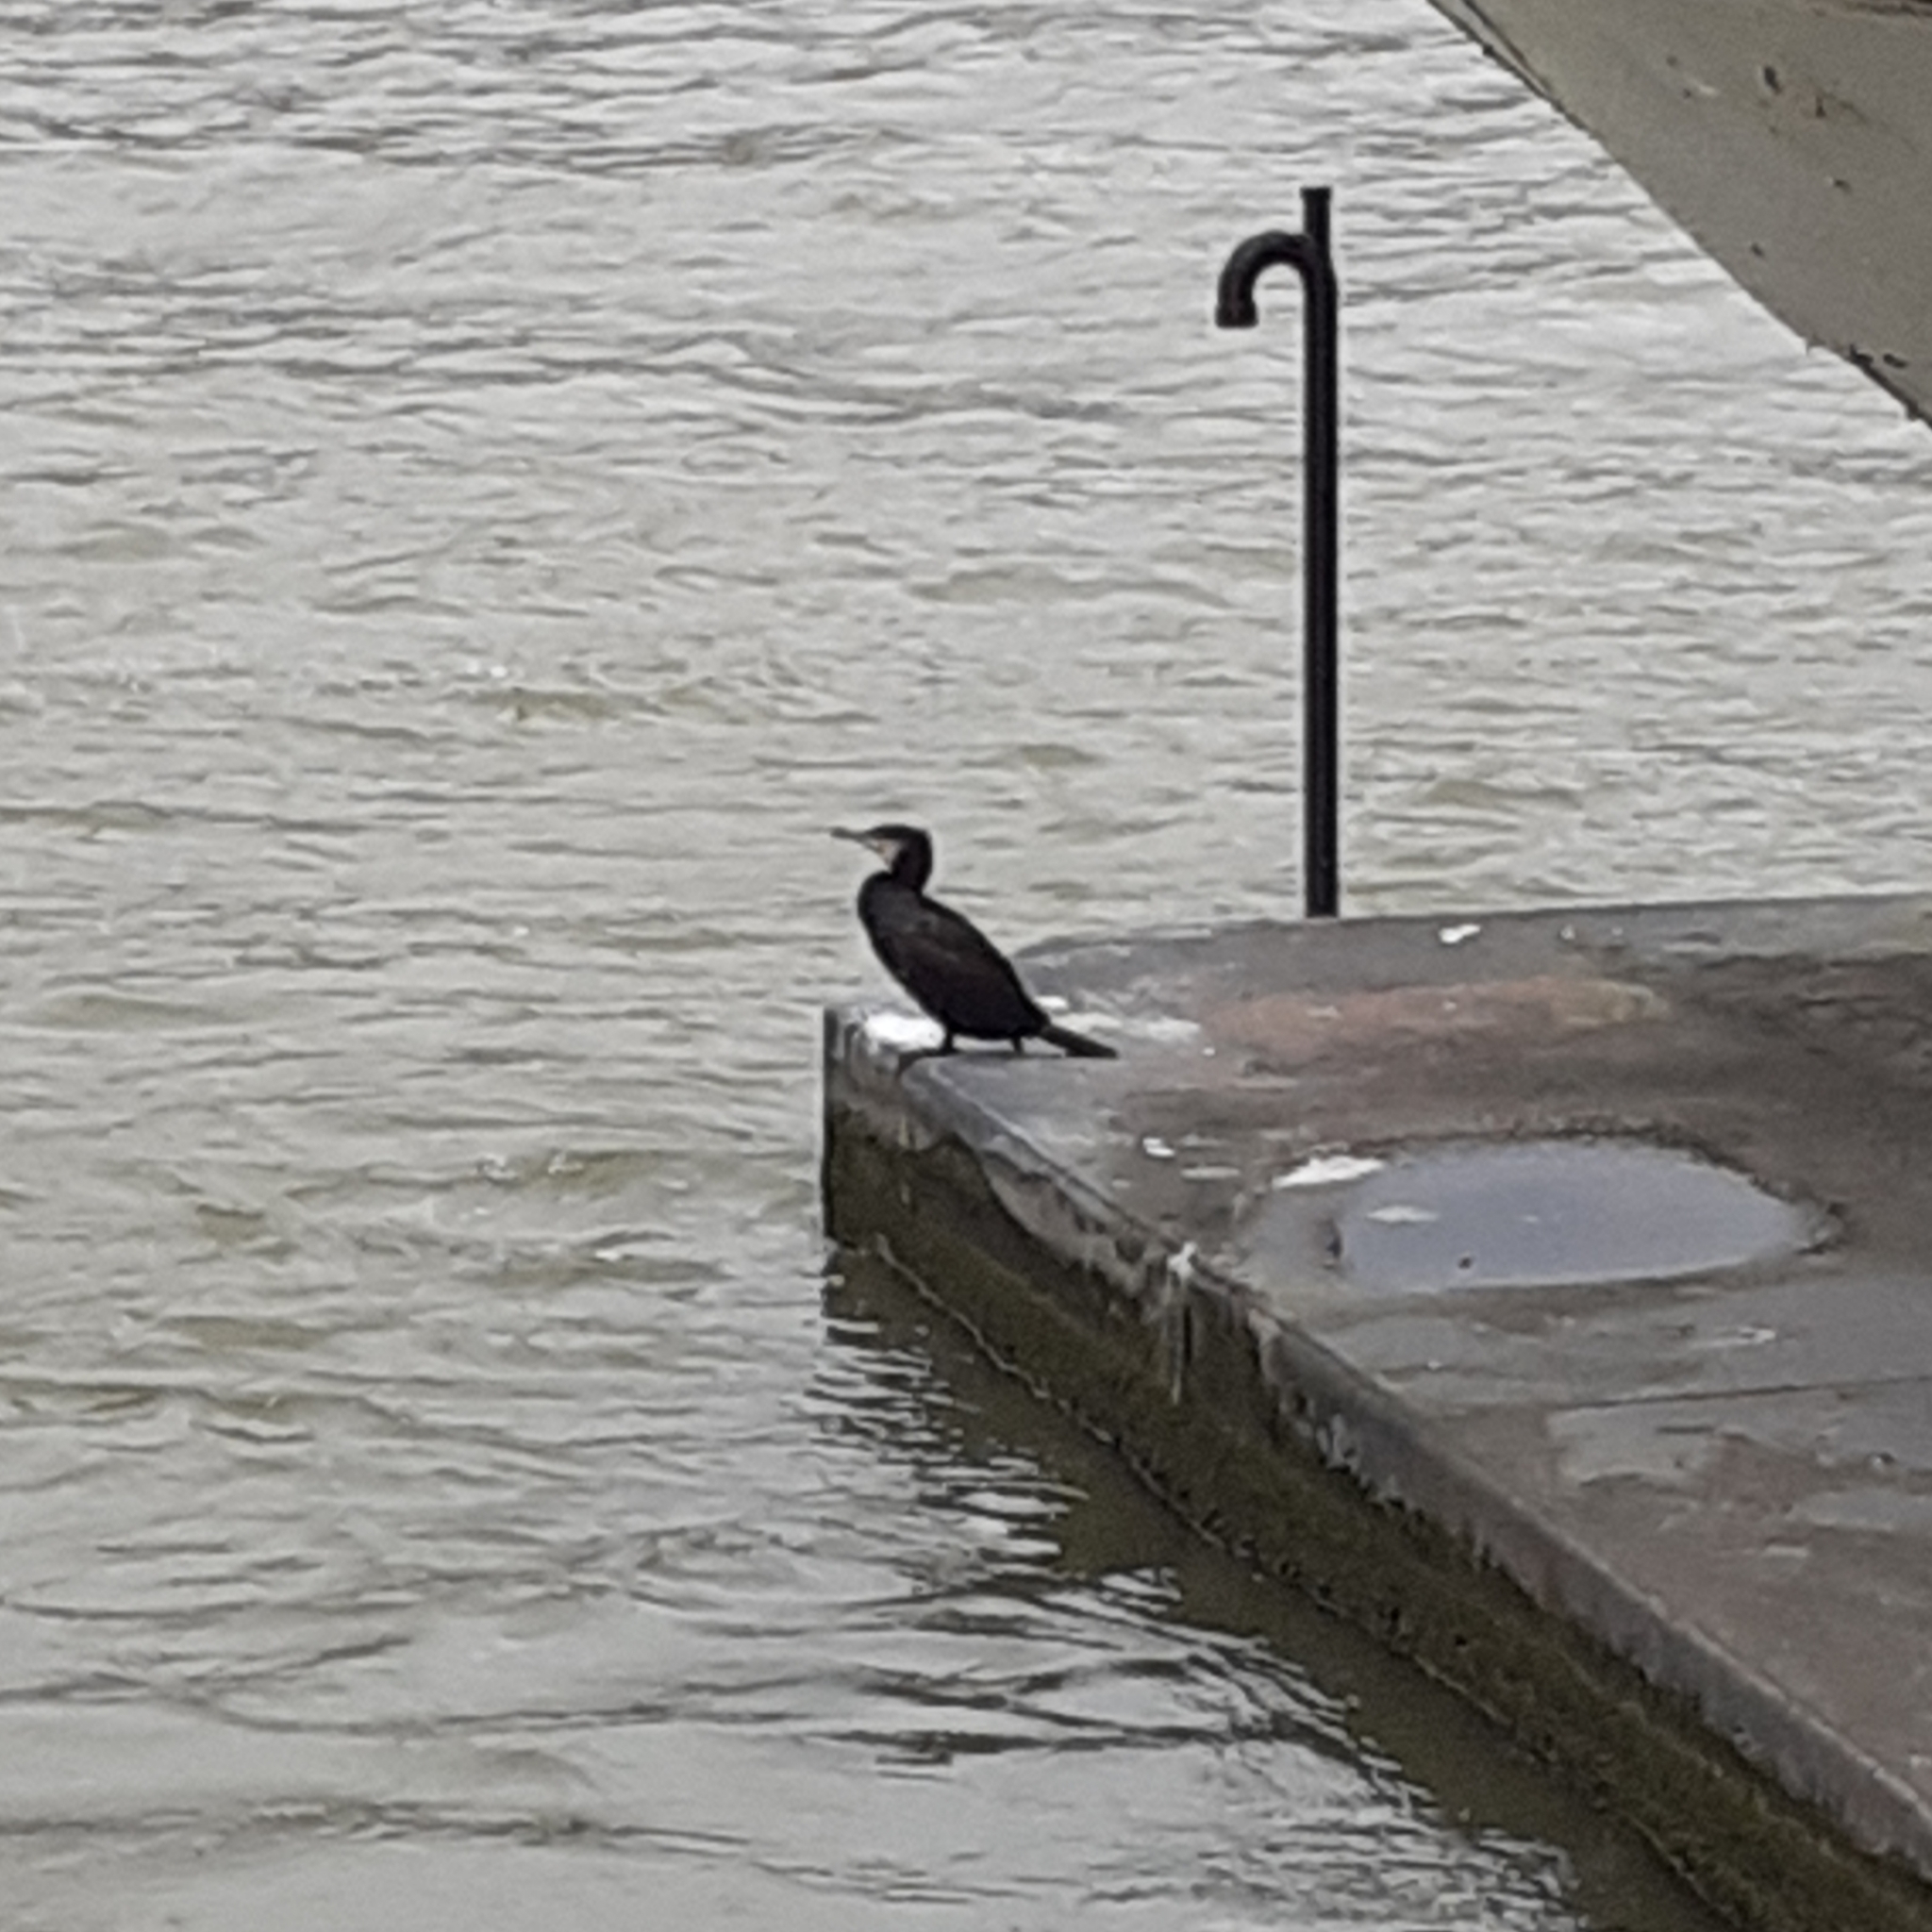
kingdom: Animalia
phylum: Chordata
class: Aves
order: Suliformes
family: Phalacrocoracidae
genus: Phalacrocorax
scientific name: Phalacrocorax carbo
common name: Great cormorant
